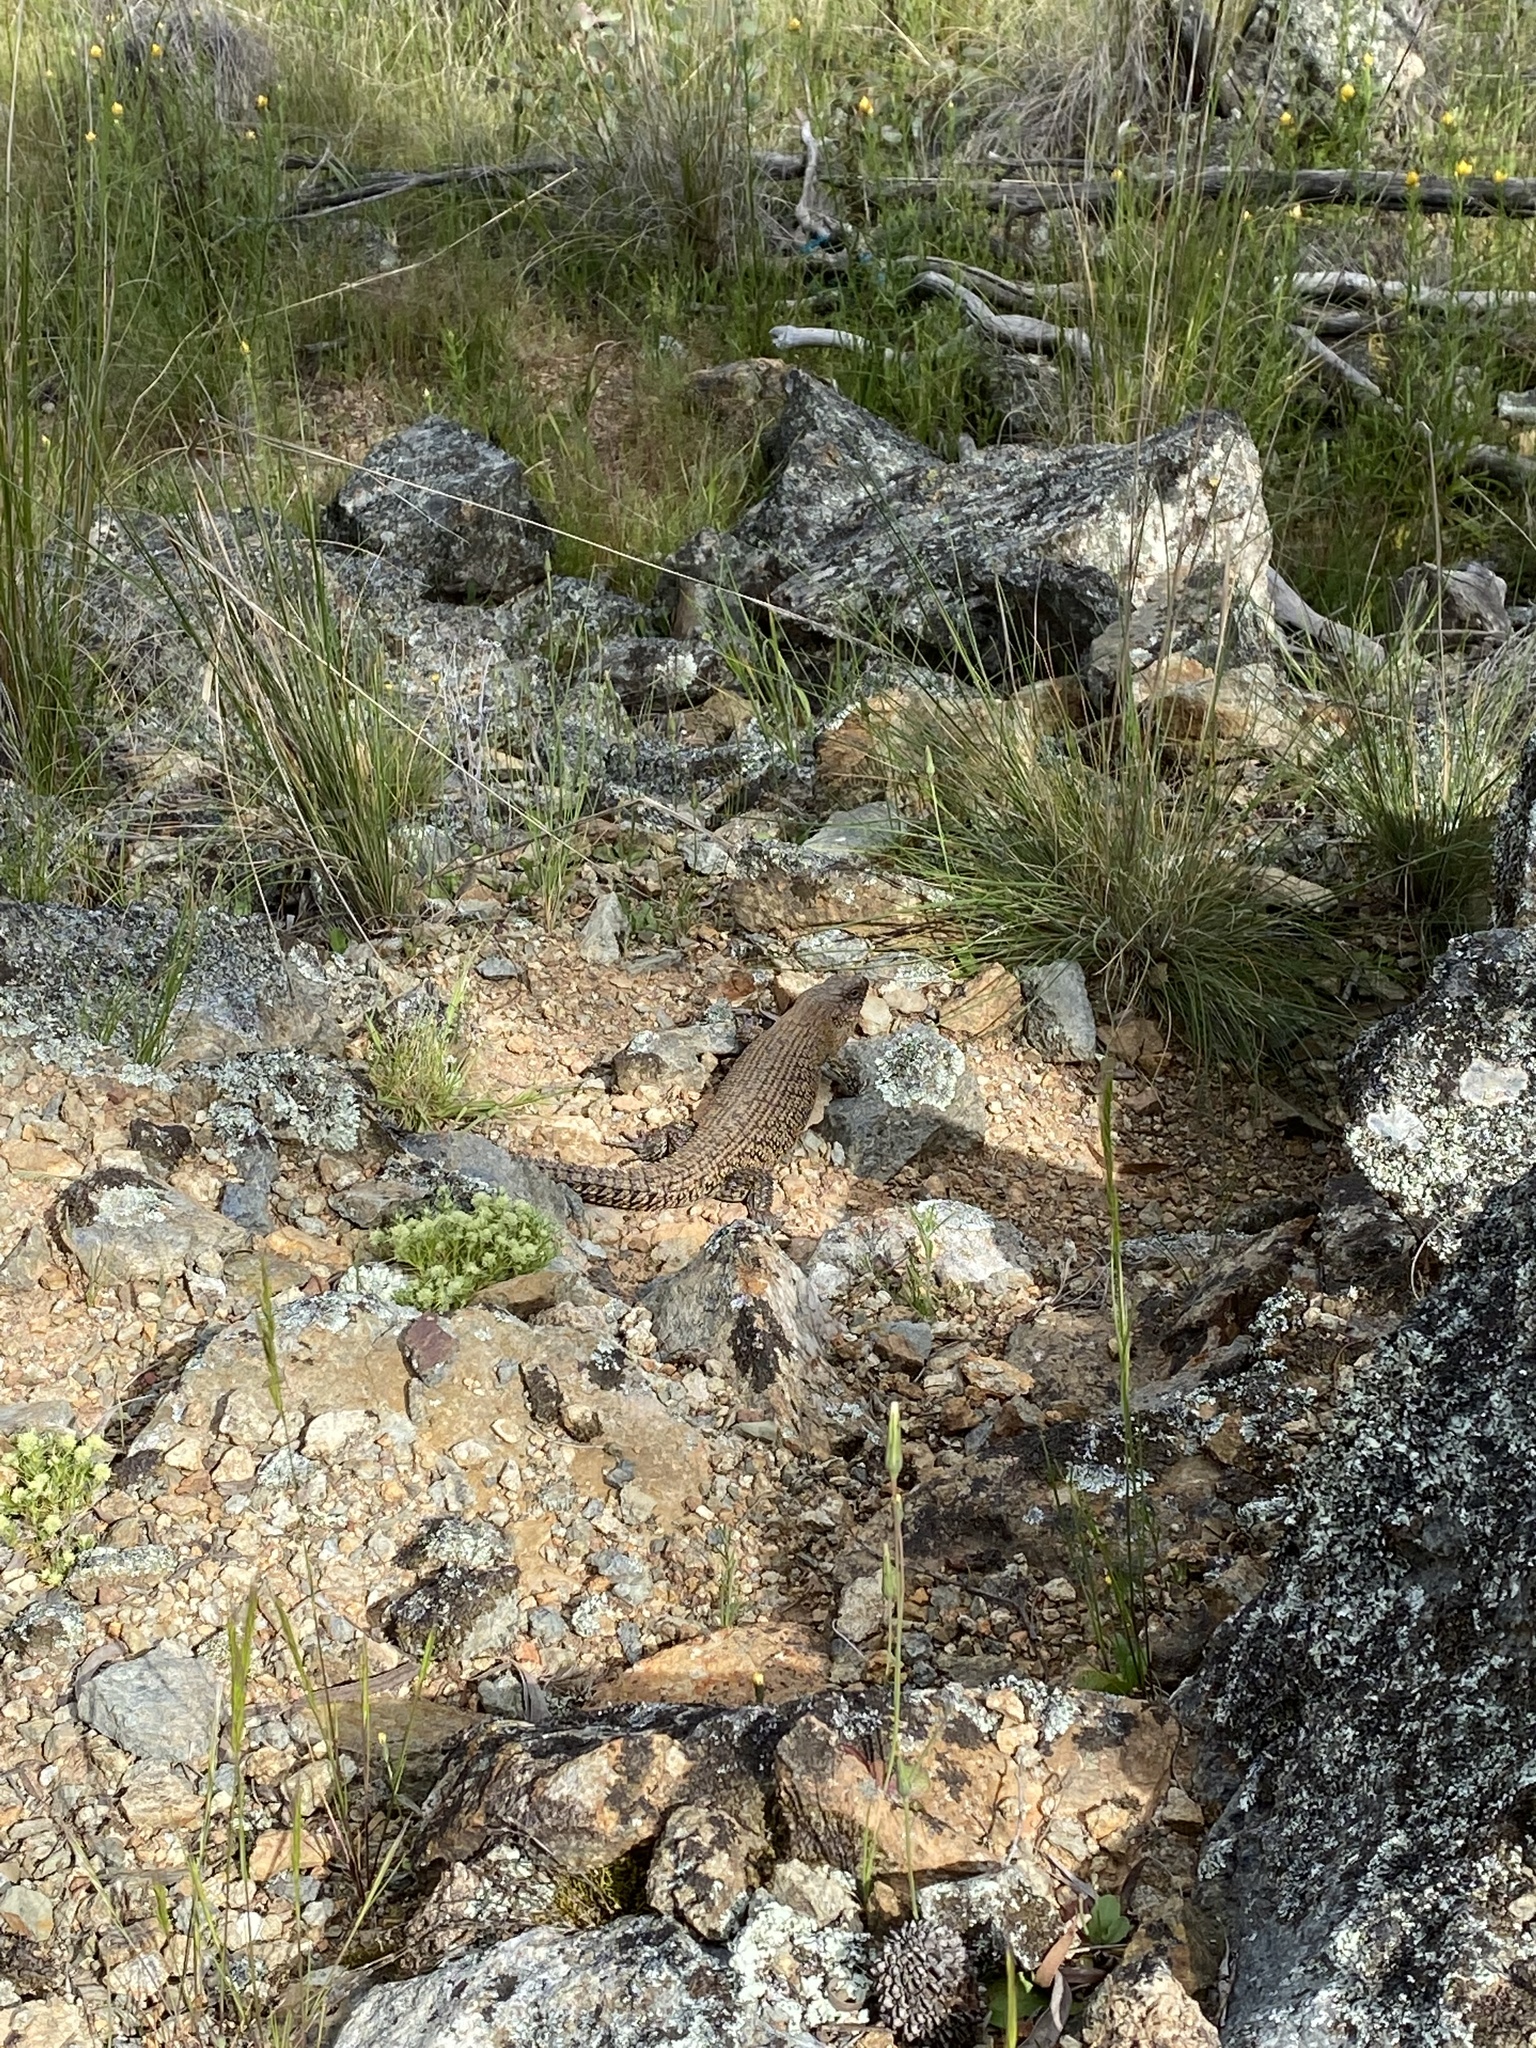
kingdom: Animalia
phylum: Chordata
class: Squamata
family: Scincidae
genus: Egernia
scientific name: Egernia cunninghami
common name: Cunningham's skink
